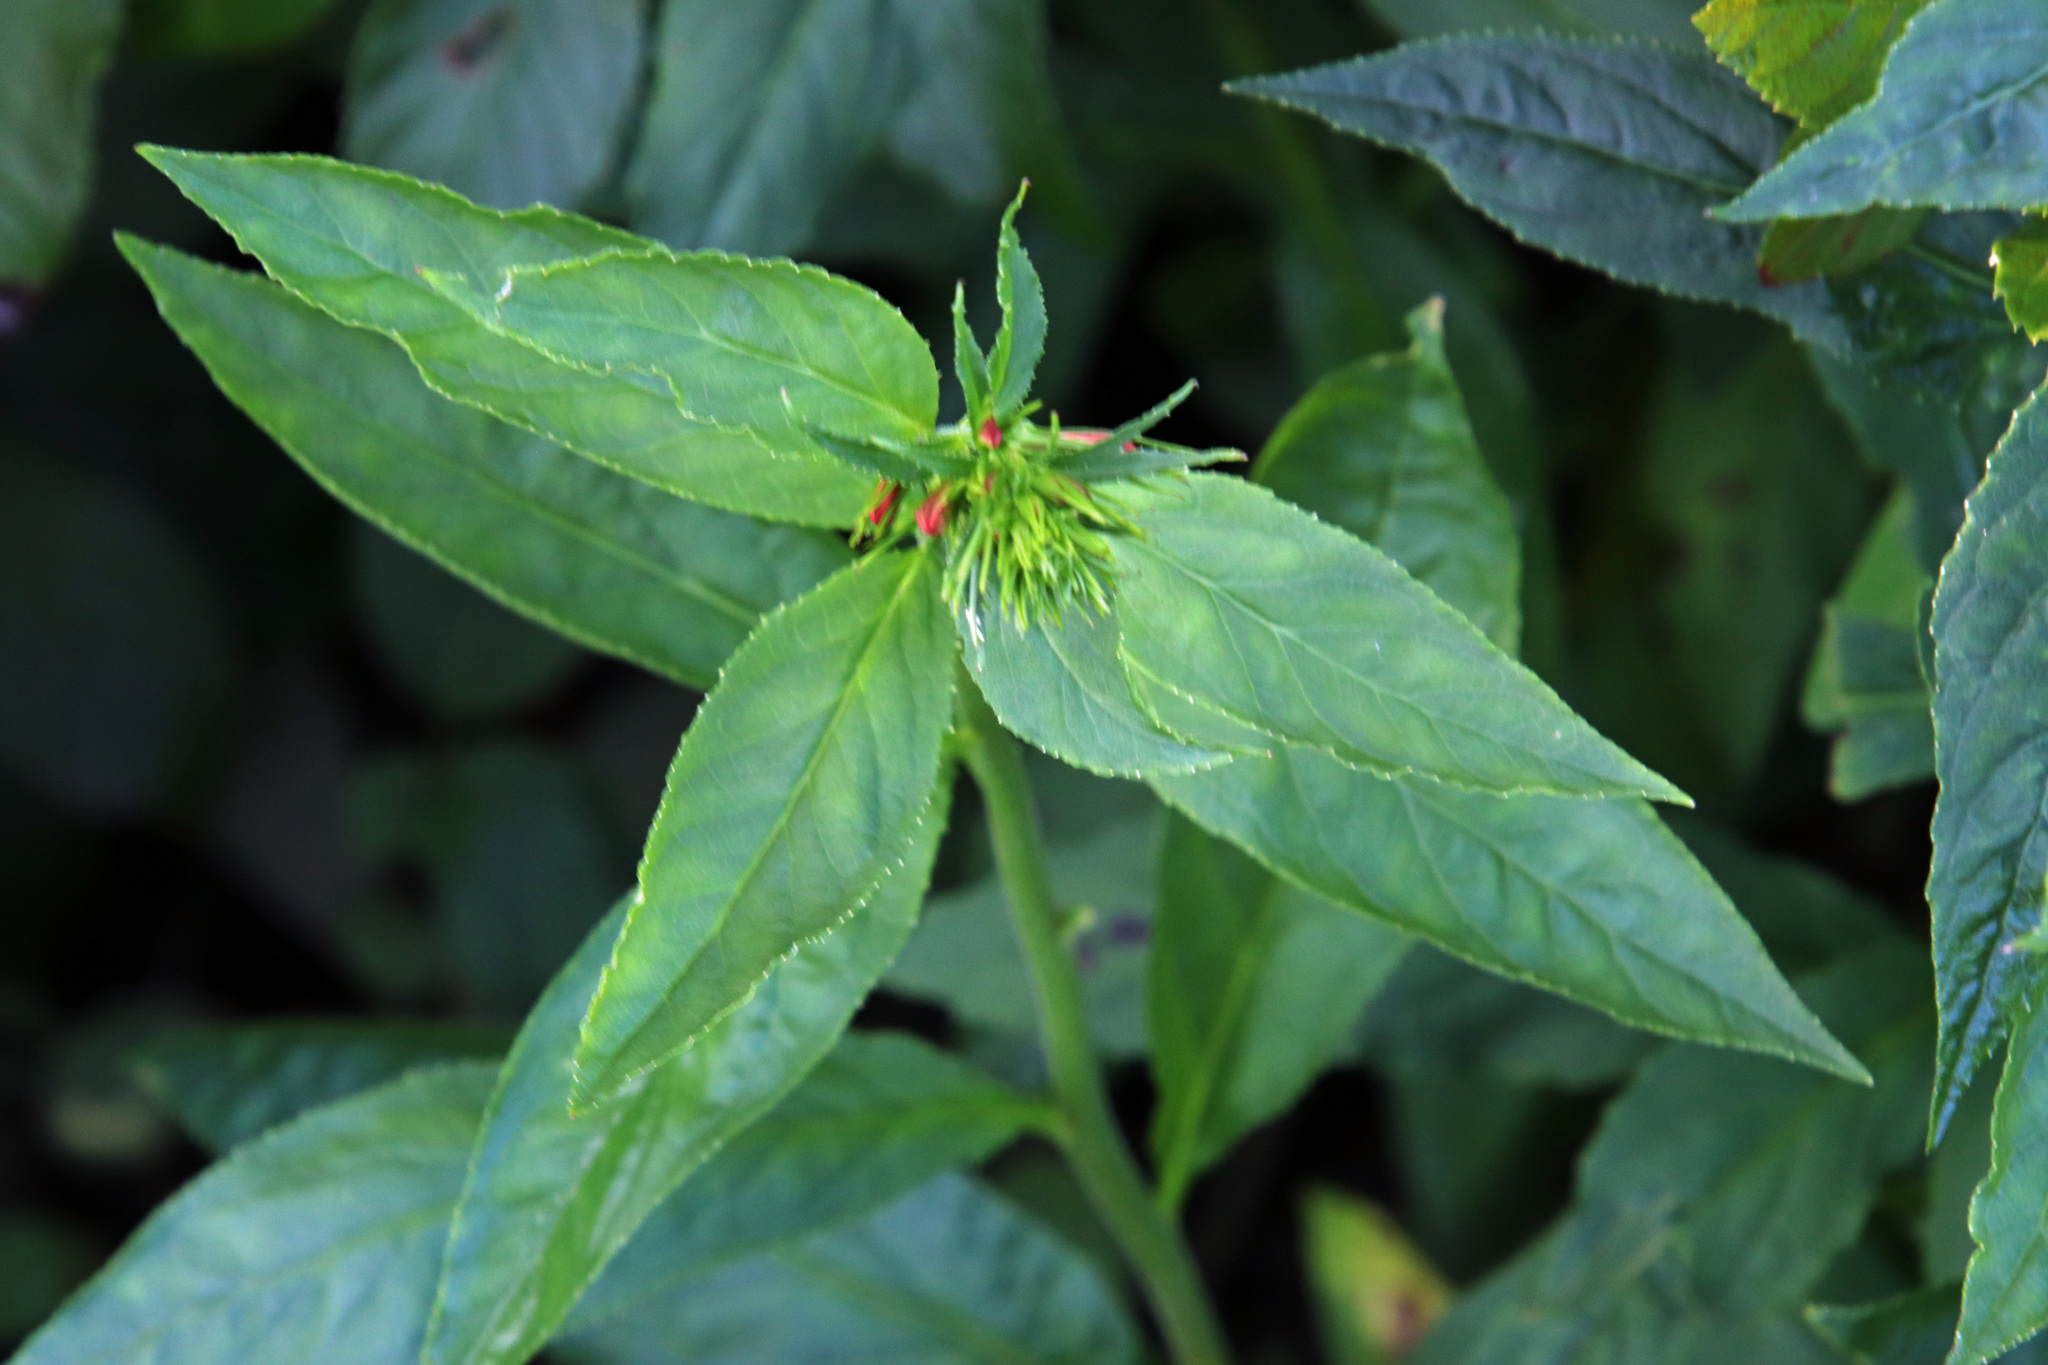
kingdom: Plantae
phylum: Tracheophyta
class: Magnoliopsida
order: Asterales
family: Campanulaceae
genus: Lobelia
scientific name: Lobelia cardinalis
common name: Cardinal flower
